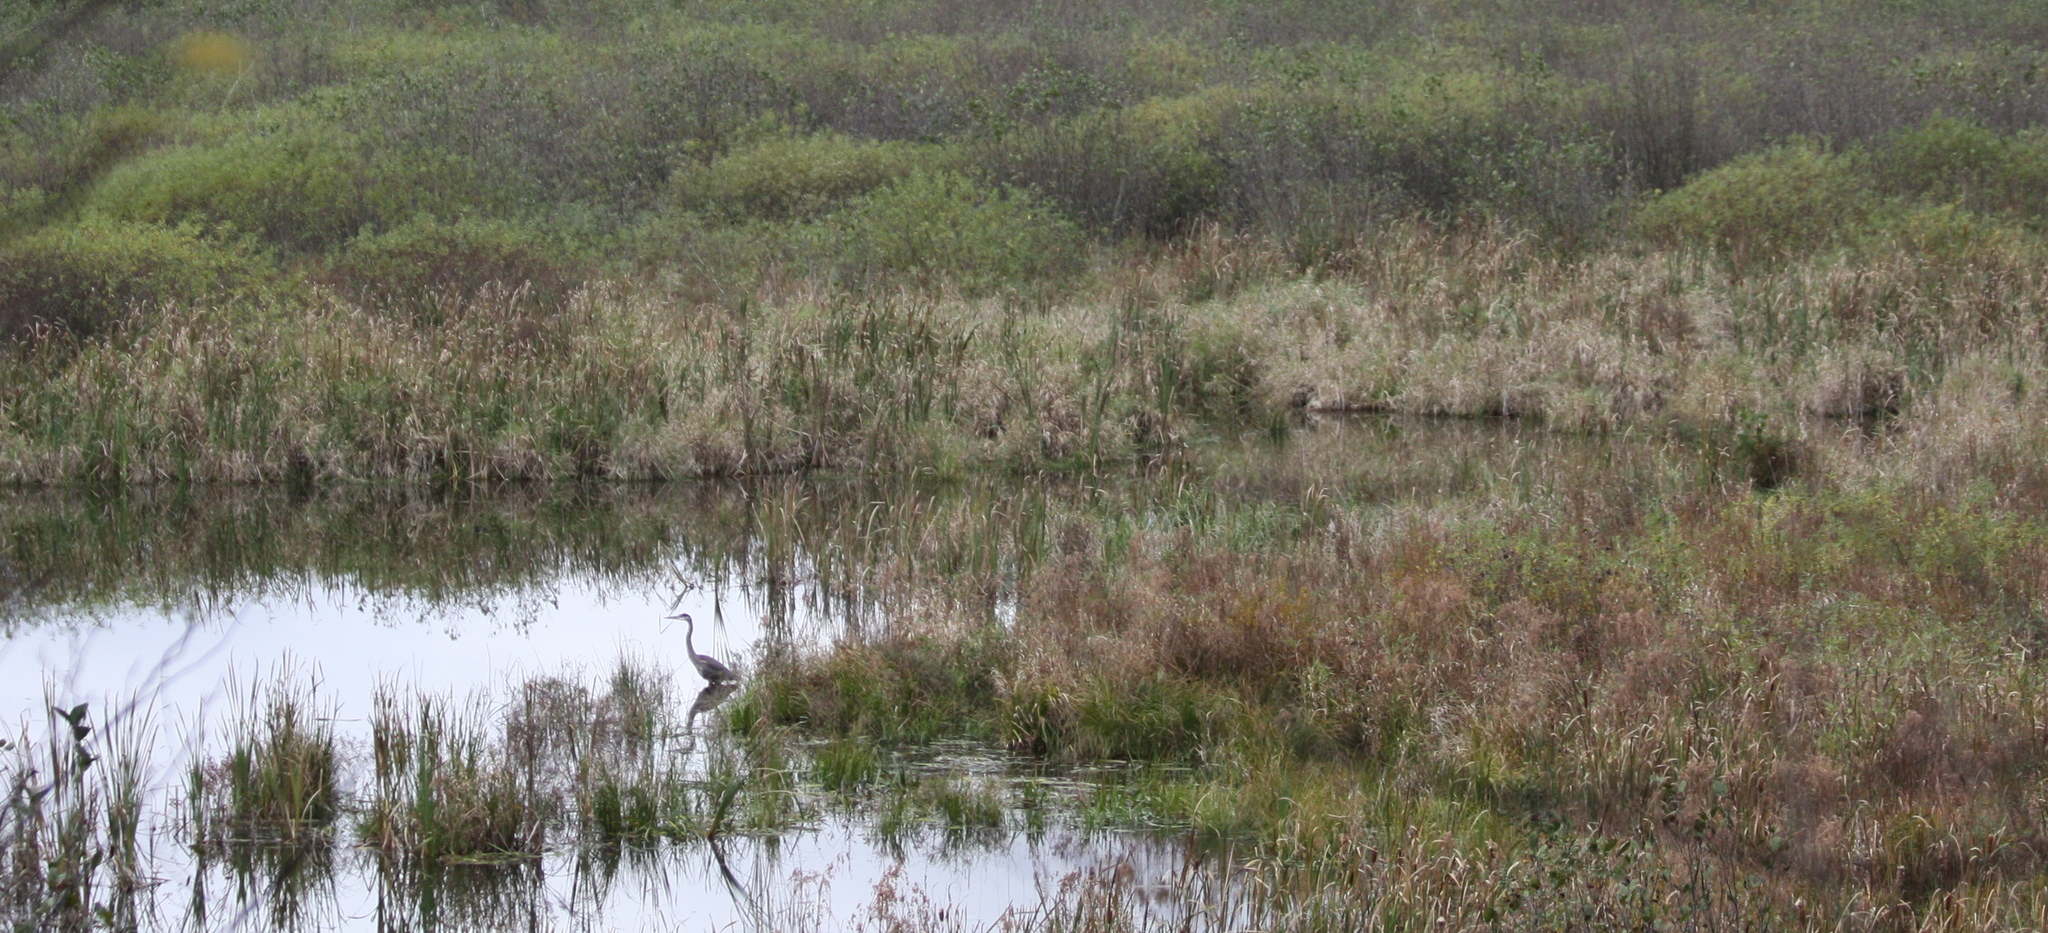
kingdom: Animalia
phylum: Chordata
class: Aves
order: Pelecaniformes
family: Ardeidae
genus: Ardea
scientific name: Ardea herodias
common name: Great blue heron
